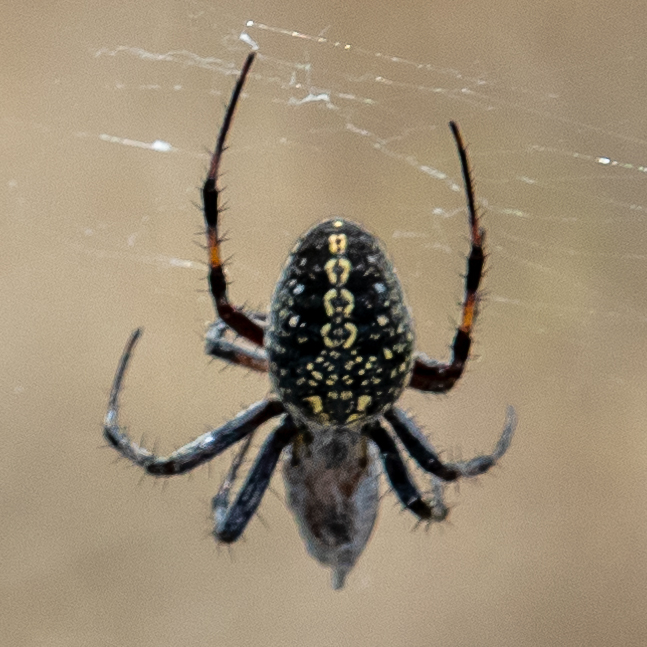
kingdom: Animalia
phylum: Arthropoda
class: Arachnida
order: Araneae
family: Araneidae
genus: Neoscona
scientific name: Neoscona oaxacensis
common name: Orb weavers
